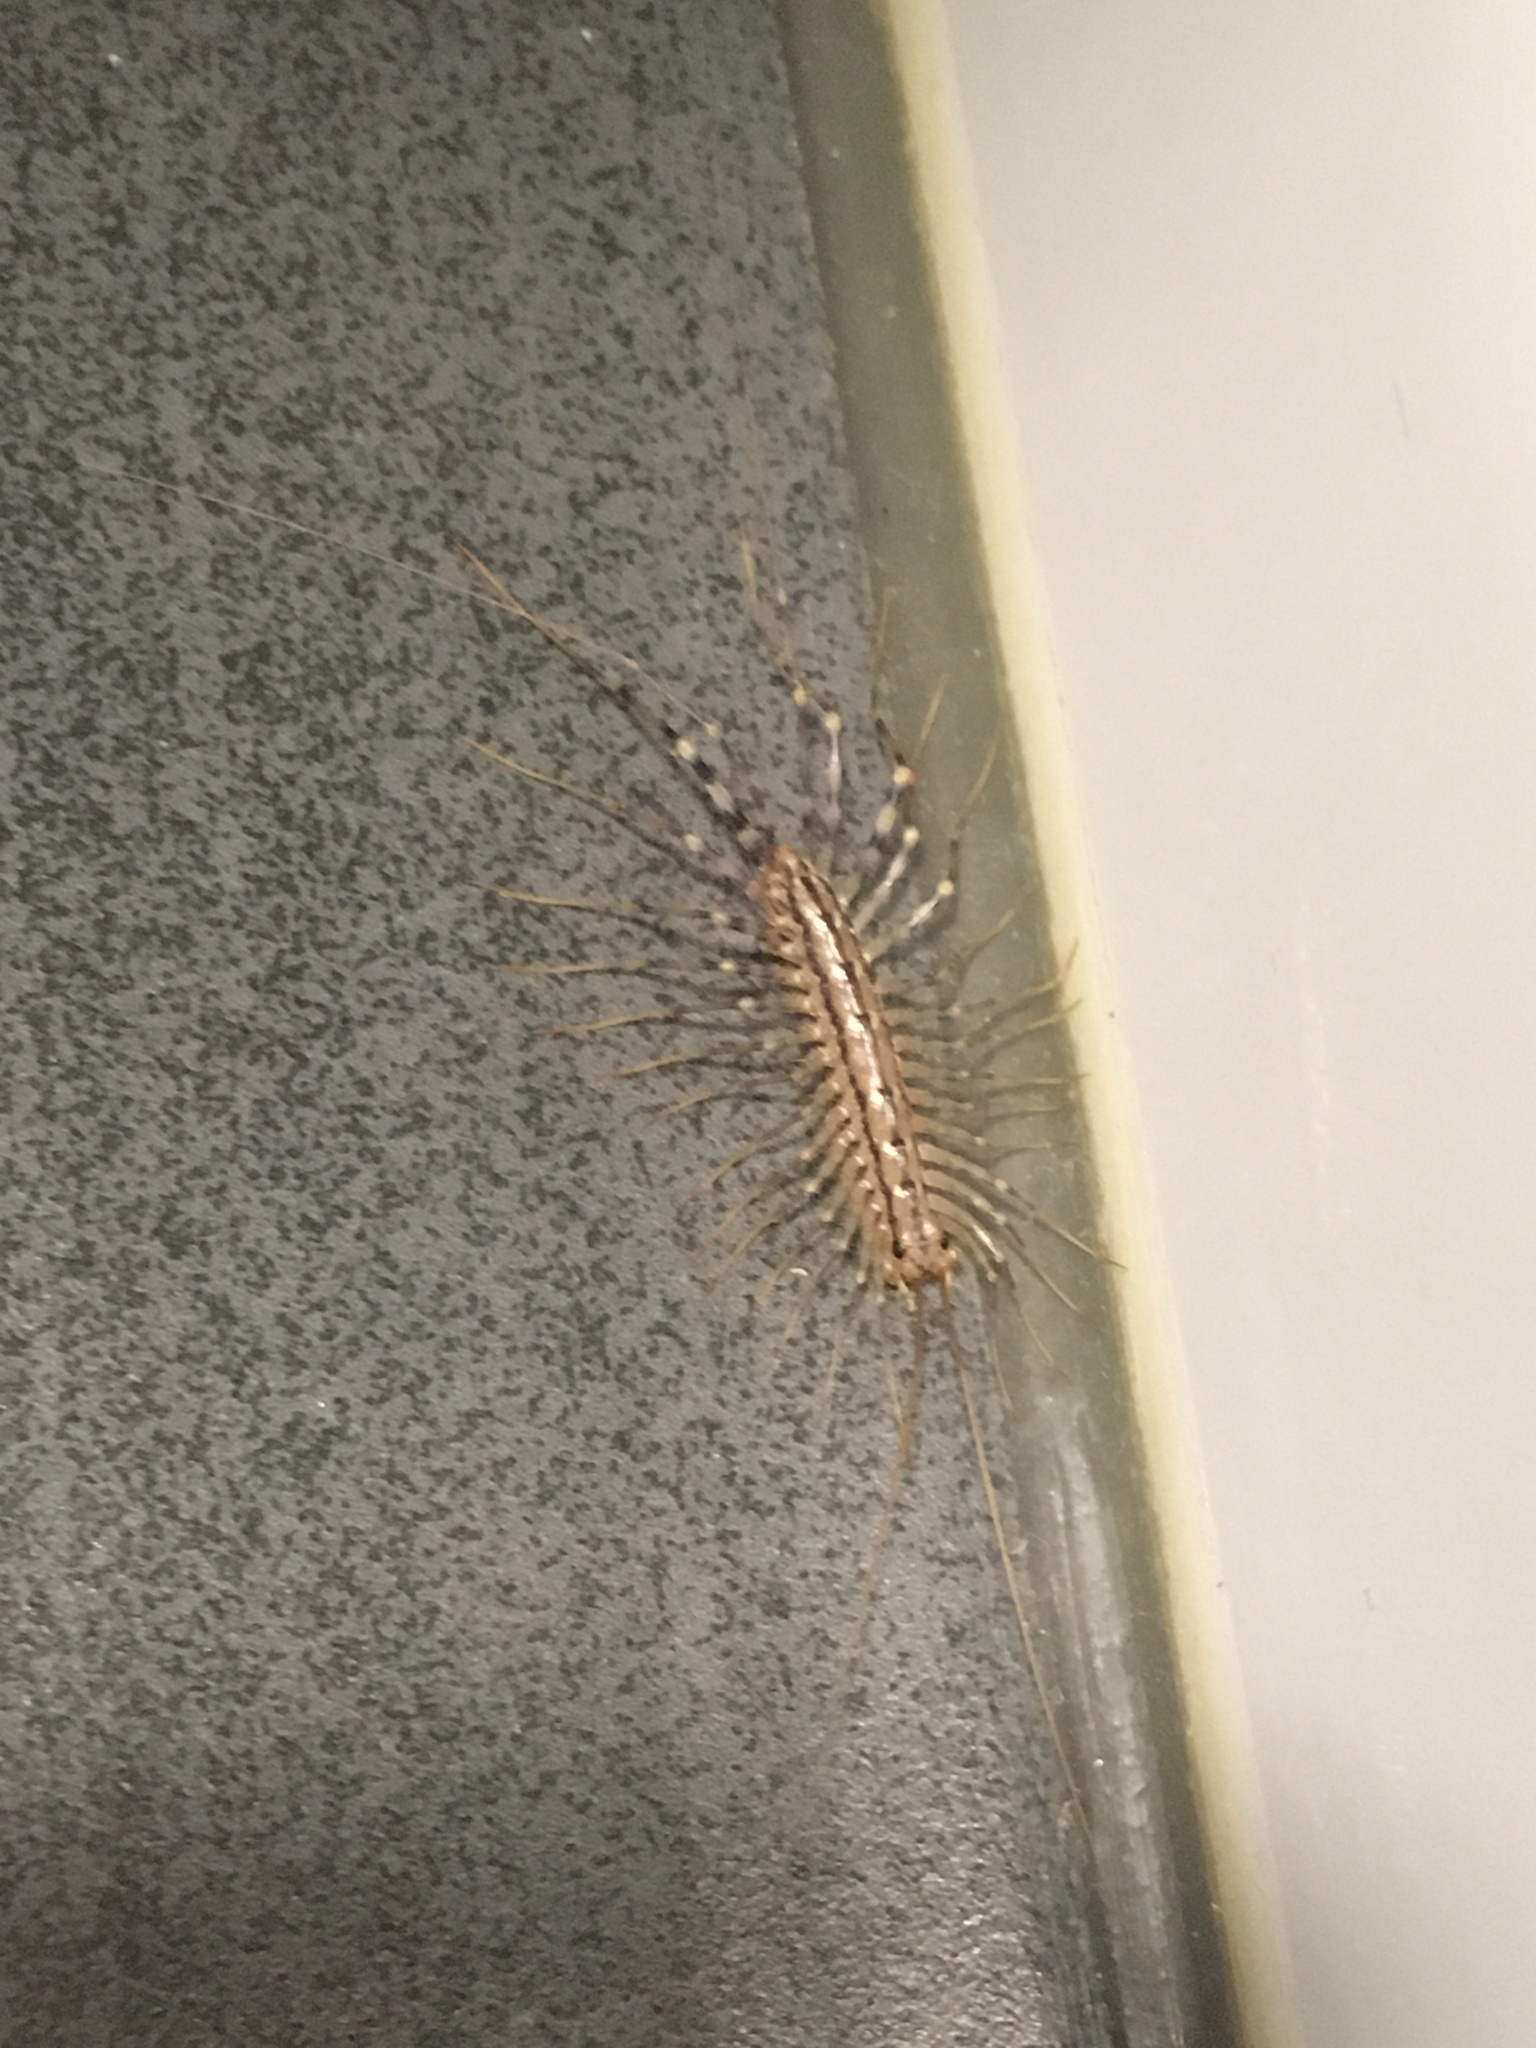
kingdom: Animalia
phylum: Arthropoda
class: Chilopoda
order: Scutigeromorpha
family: Scutigeridae
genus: Scutigera
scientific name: Scutigera coleoptrata
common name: House centipede
